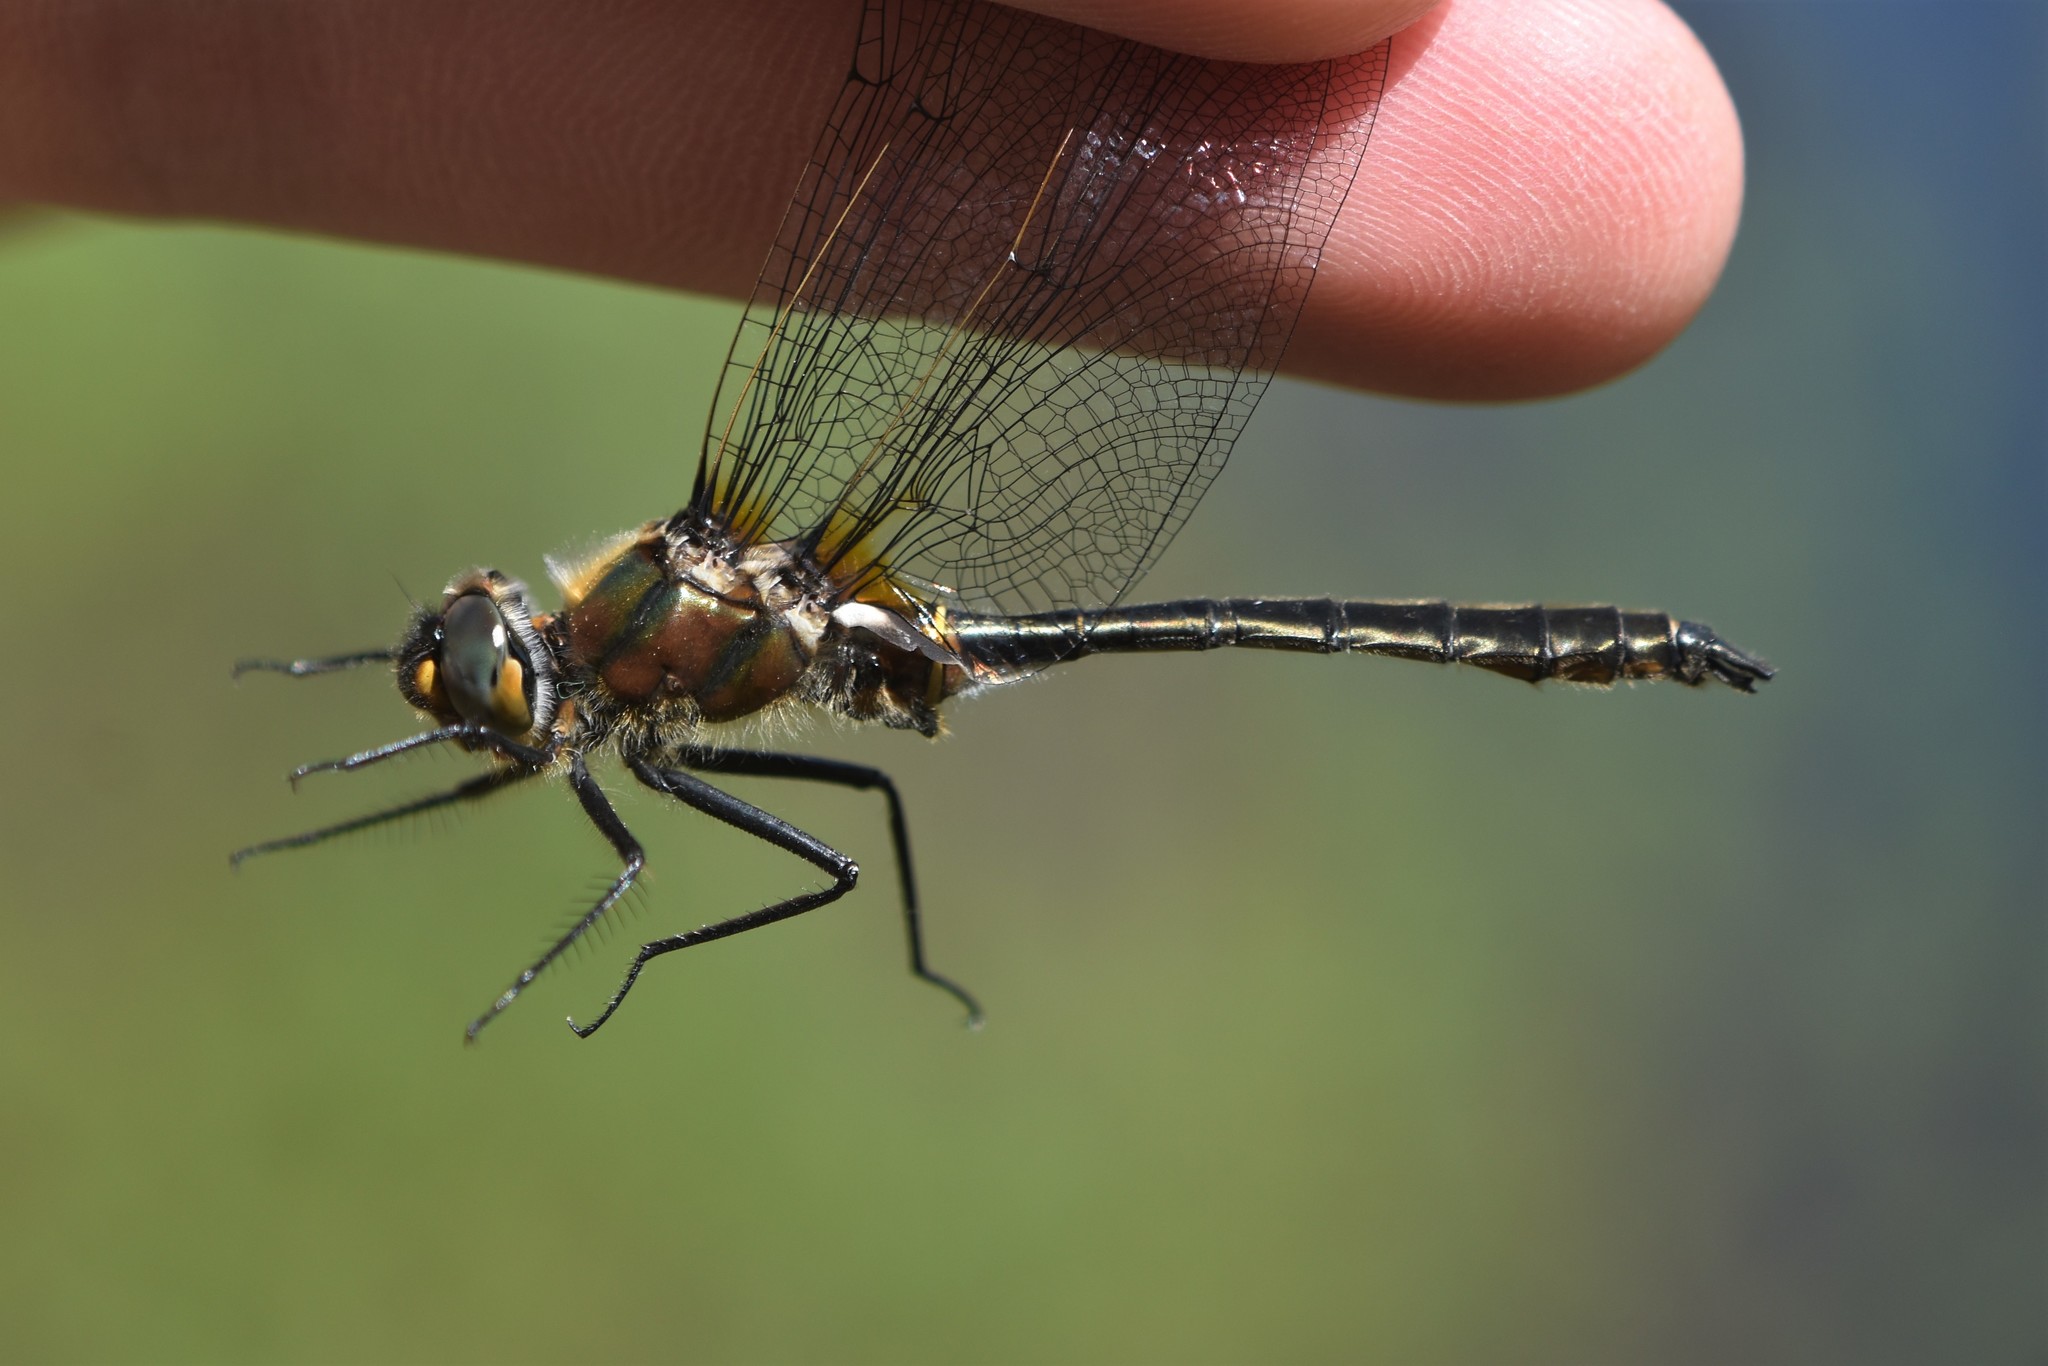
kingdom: Animalia
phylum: Arthropoda
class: Insecta
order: Odonata
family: Corduliidae
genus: Cordulia
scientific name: Cordulia shurtleffii
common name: American emerald
